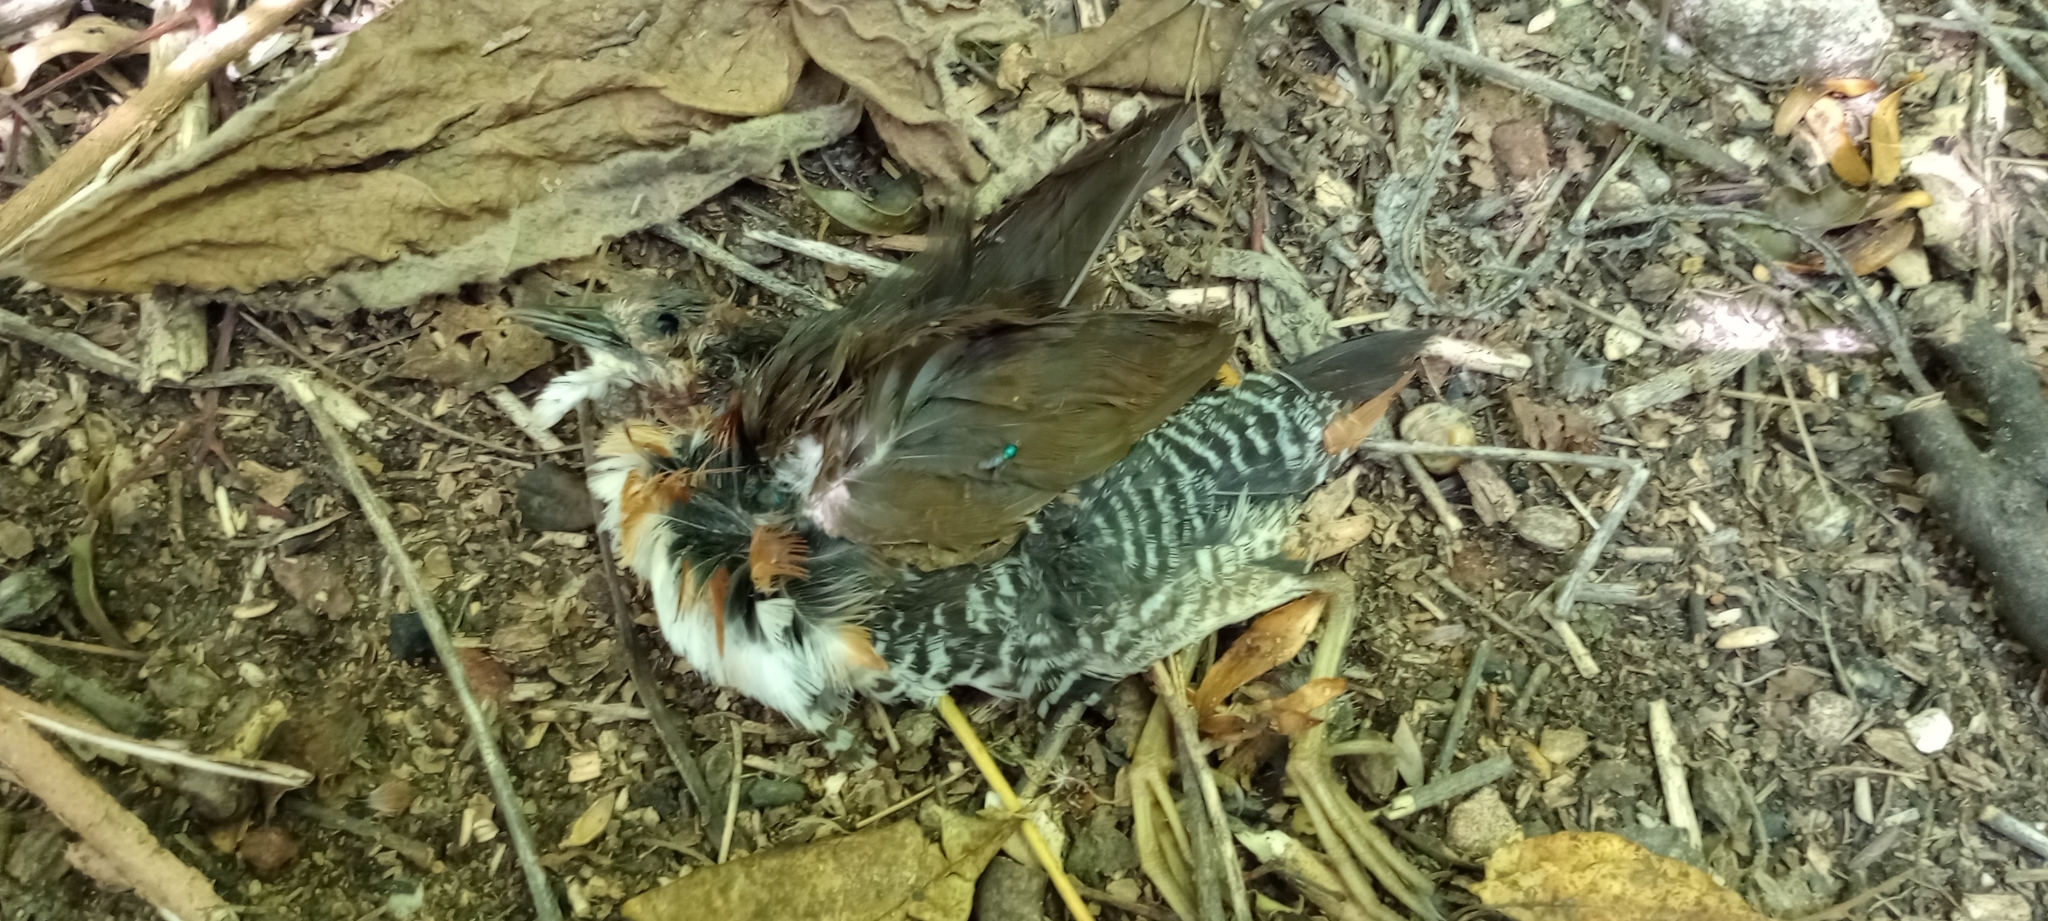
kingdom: Animalia
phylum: Chordata
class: Aves
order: Gruiformes
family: Rallidae
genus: Laterallus
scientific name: Laterallus melanophaius
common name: Rufous-sided crake
